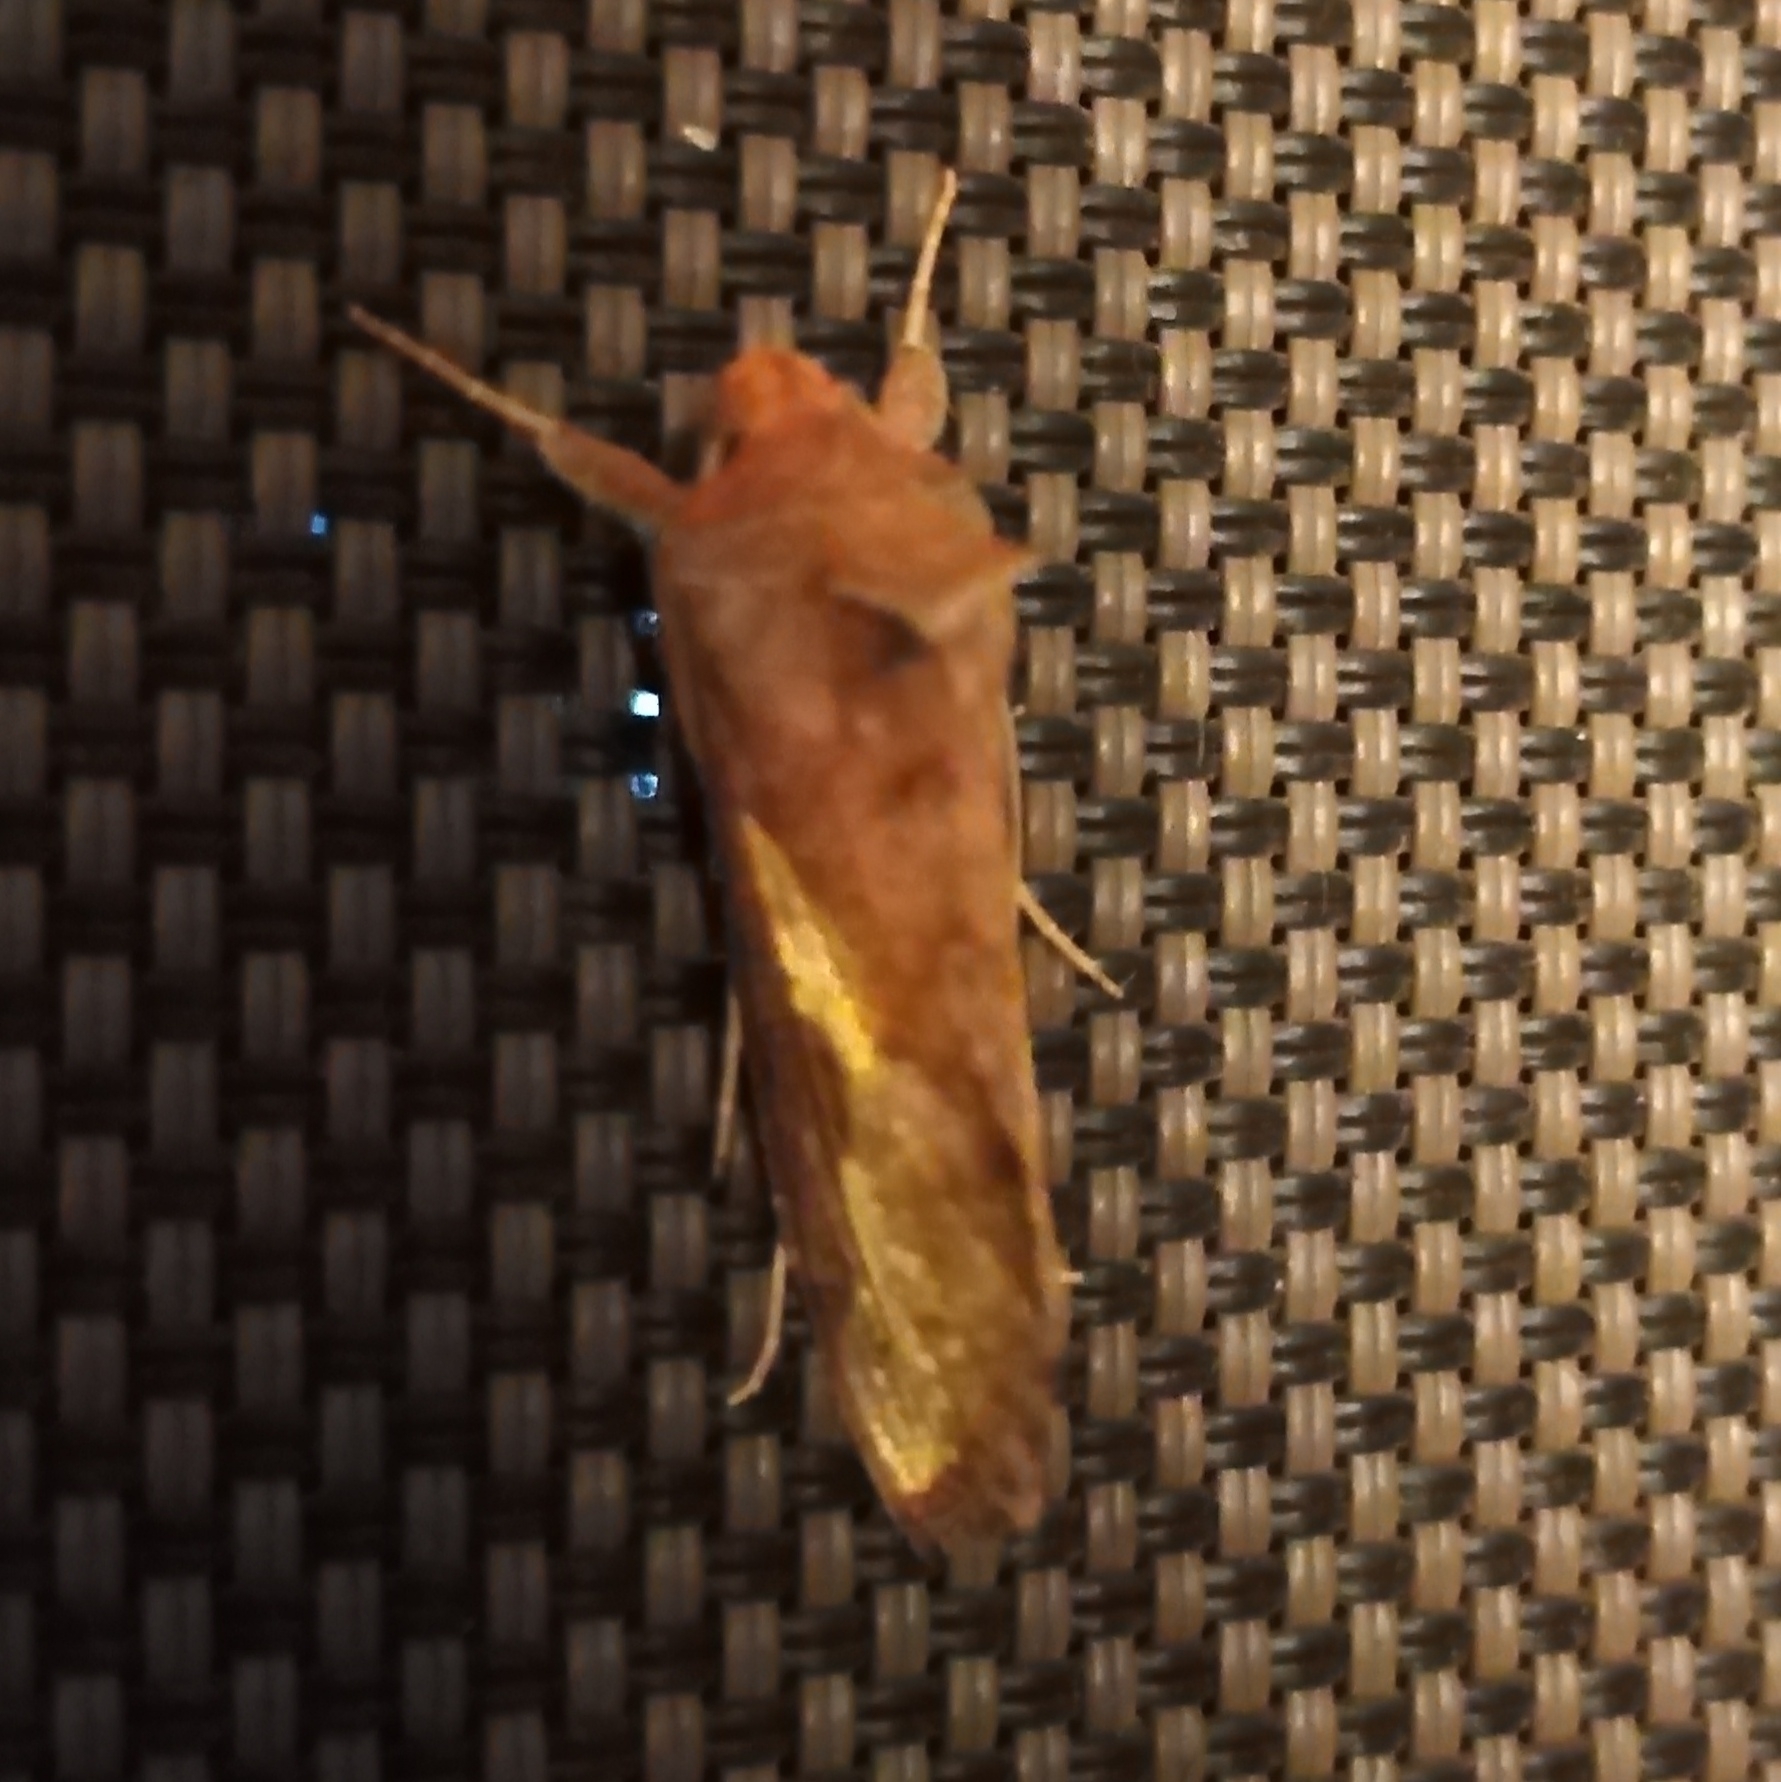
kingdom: Animalia
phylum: Arthropoda
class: Insecta
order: Lepidoptera
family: Noctuidae
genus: Thysanoplusia
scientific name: Thysanoplusia orichalcea
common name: Slender burnished brass, golden plusia
